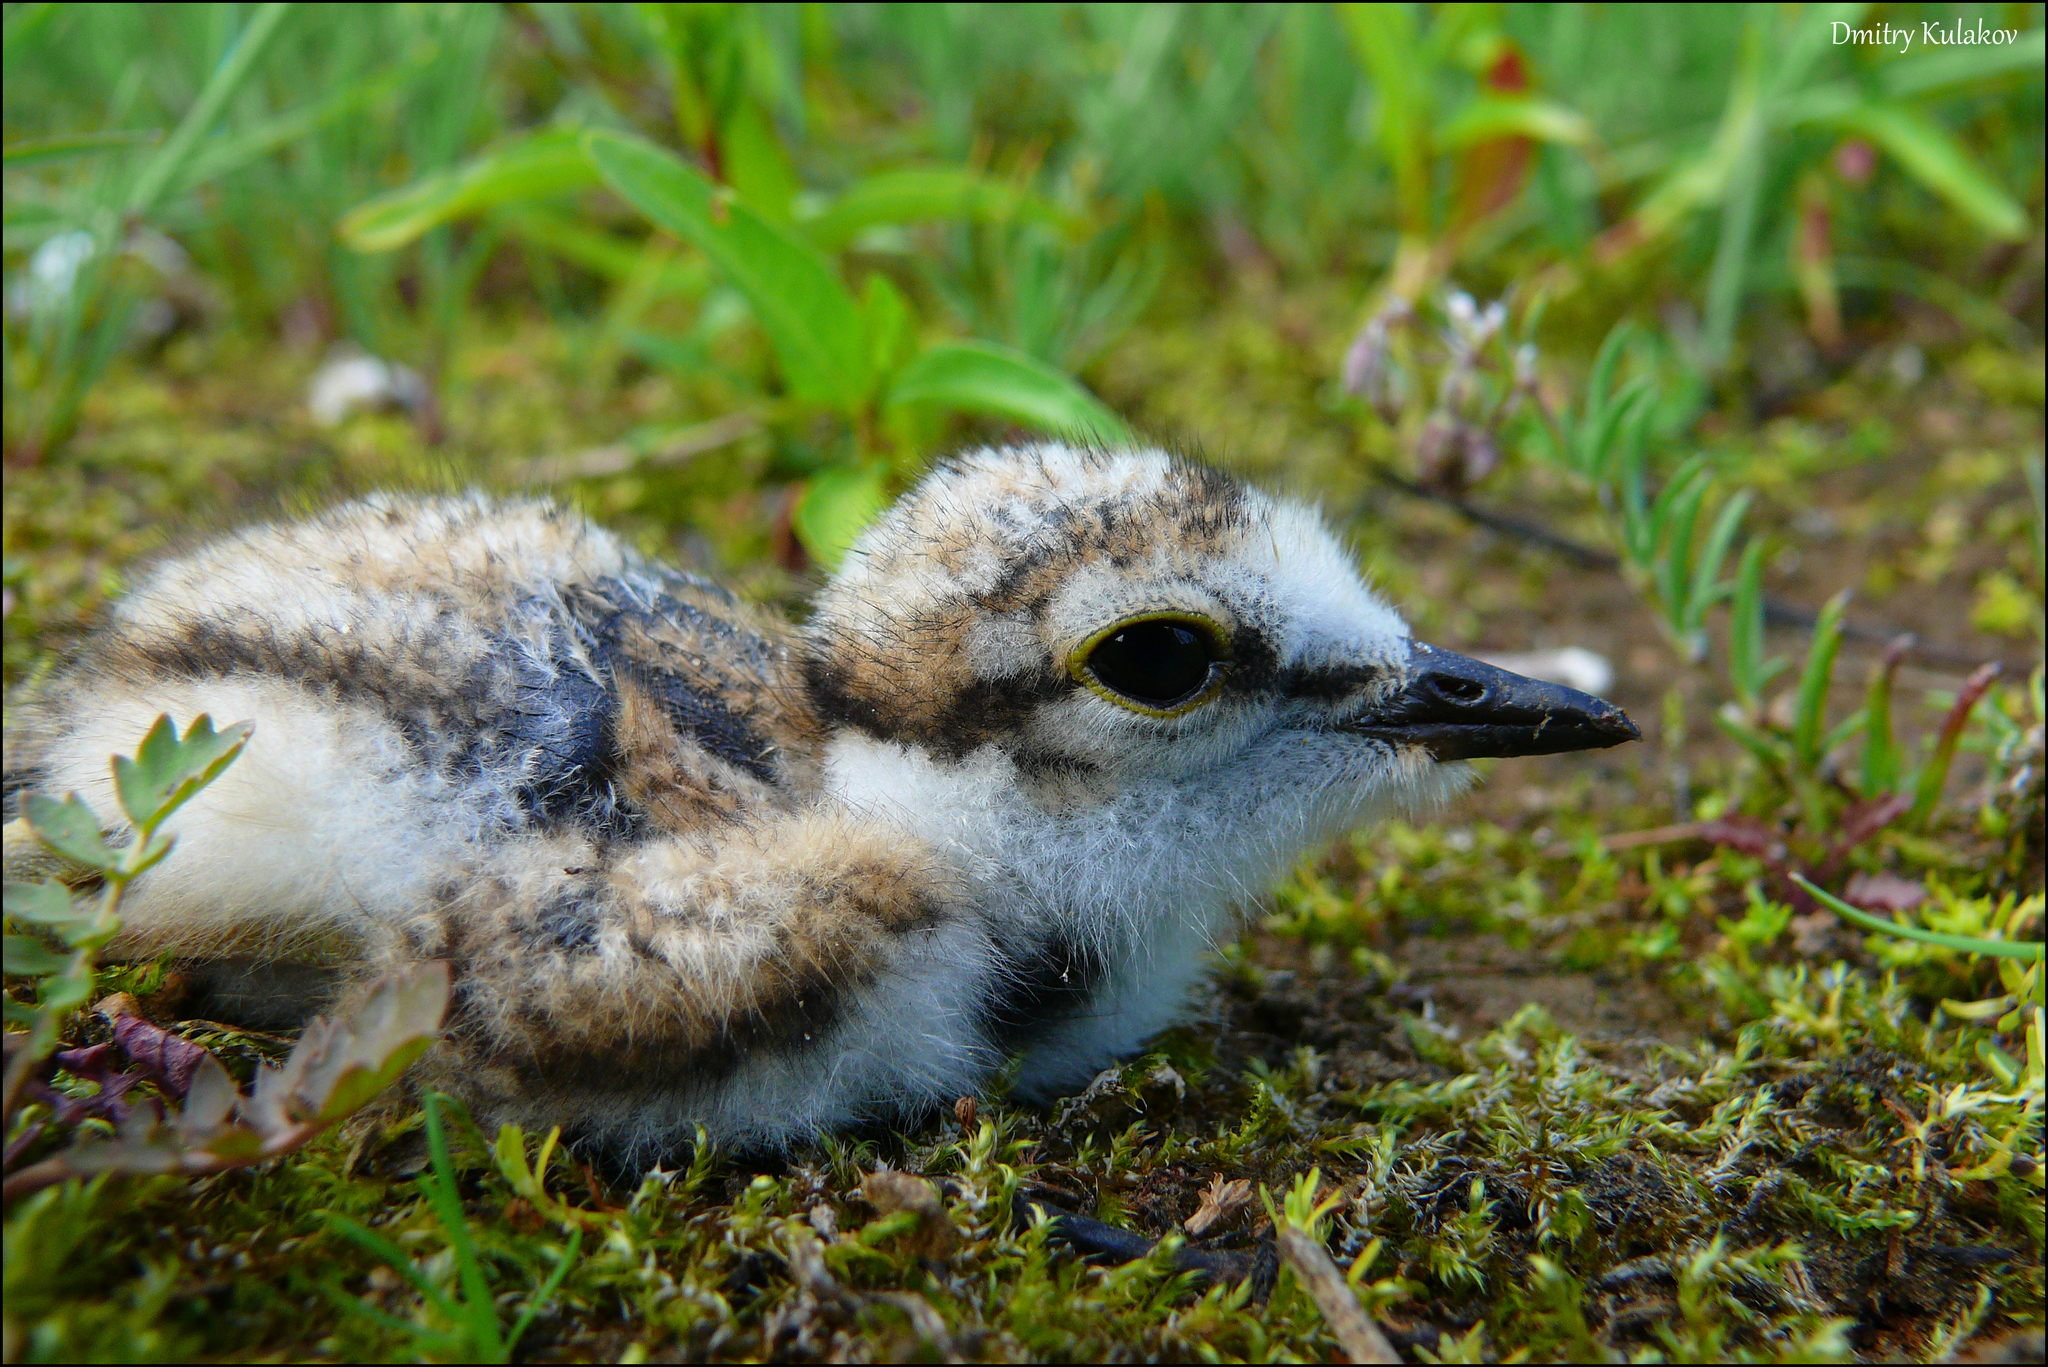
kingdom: Animalia
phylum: Chordata
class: Aves
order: Charadriiformes
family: Charadriidae
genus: Charadrius
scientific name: Charadrius dubius
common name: Little ringed plover
